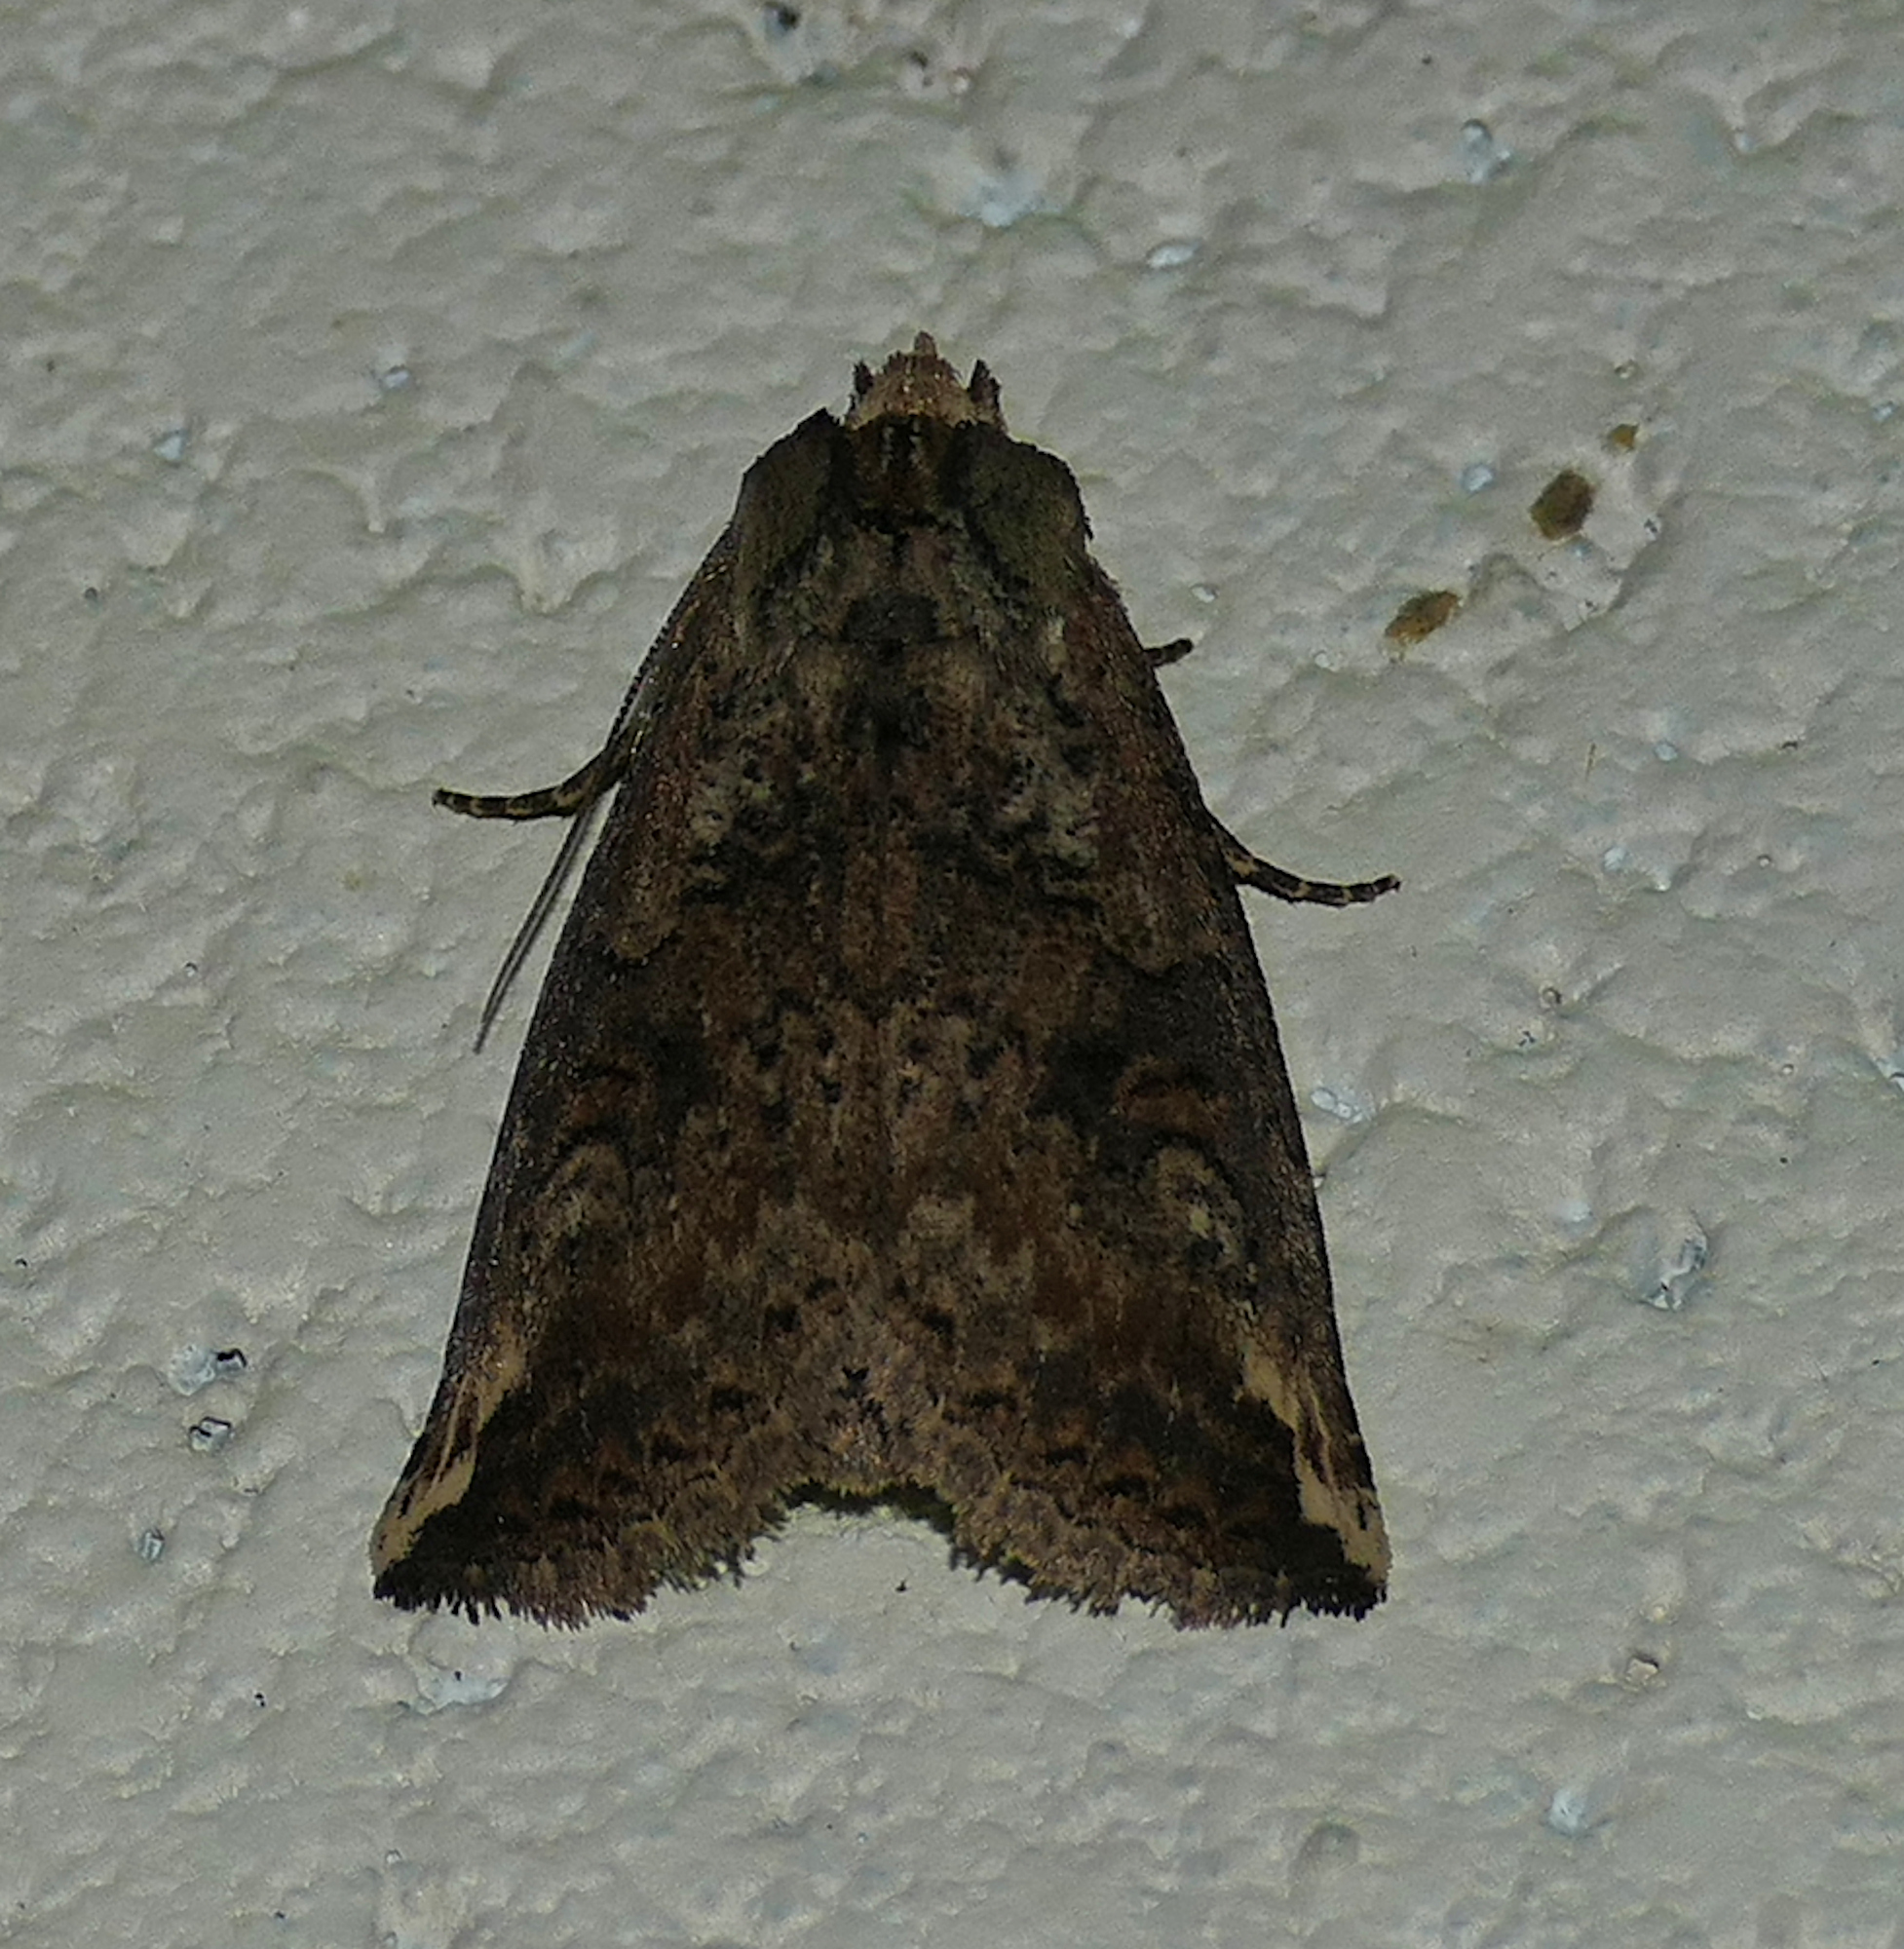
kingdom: Animalia
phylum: Arthropoda
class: Insecta
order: Lepidoptera
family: Notodontidae
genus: Elasmia
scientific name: Elasmia packardii
